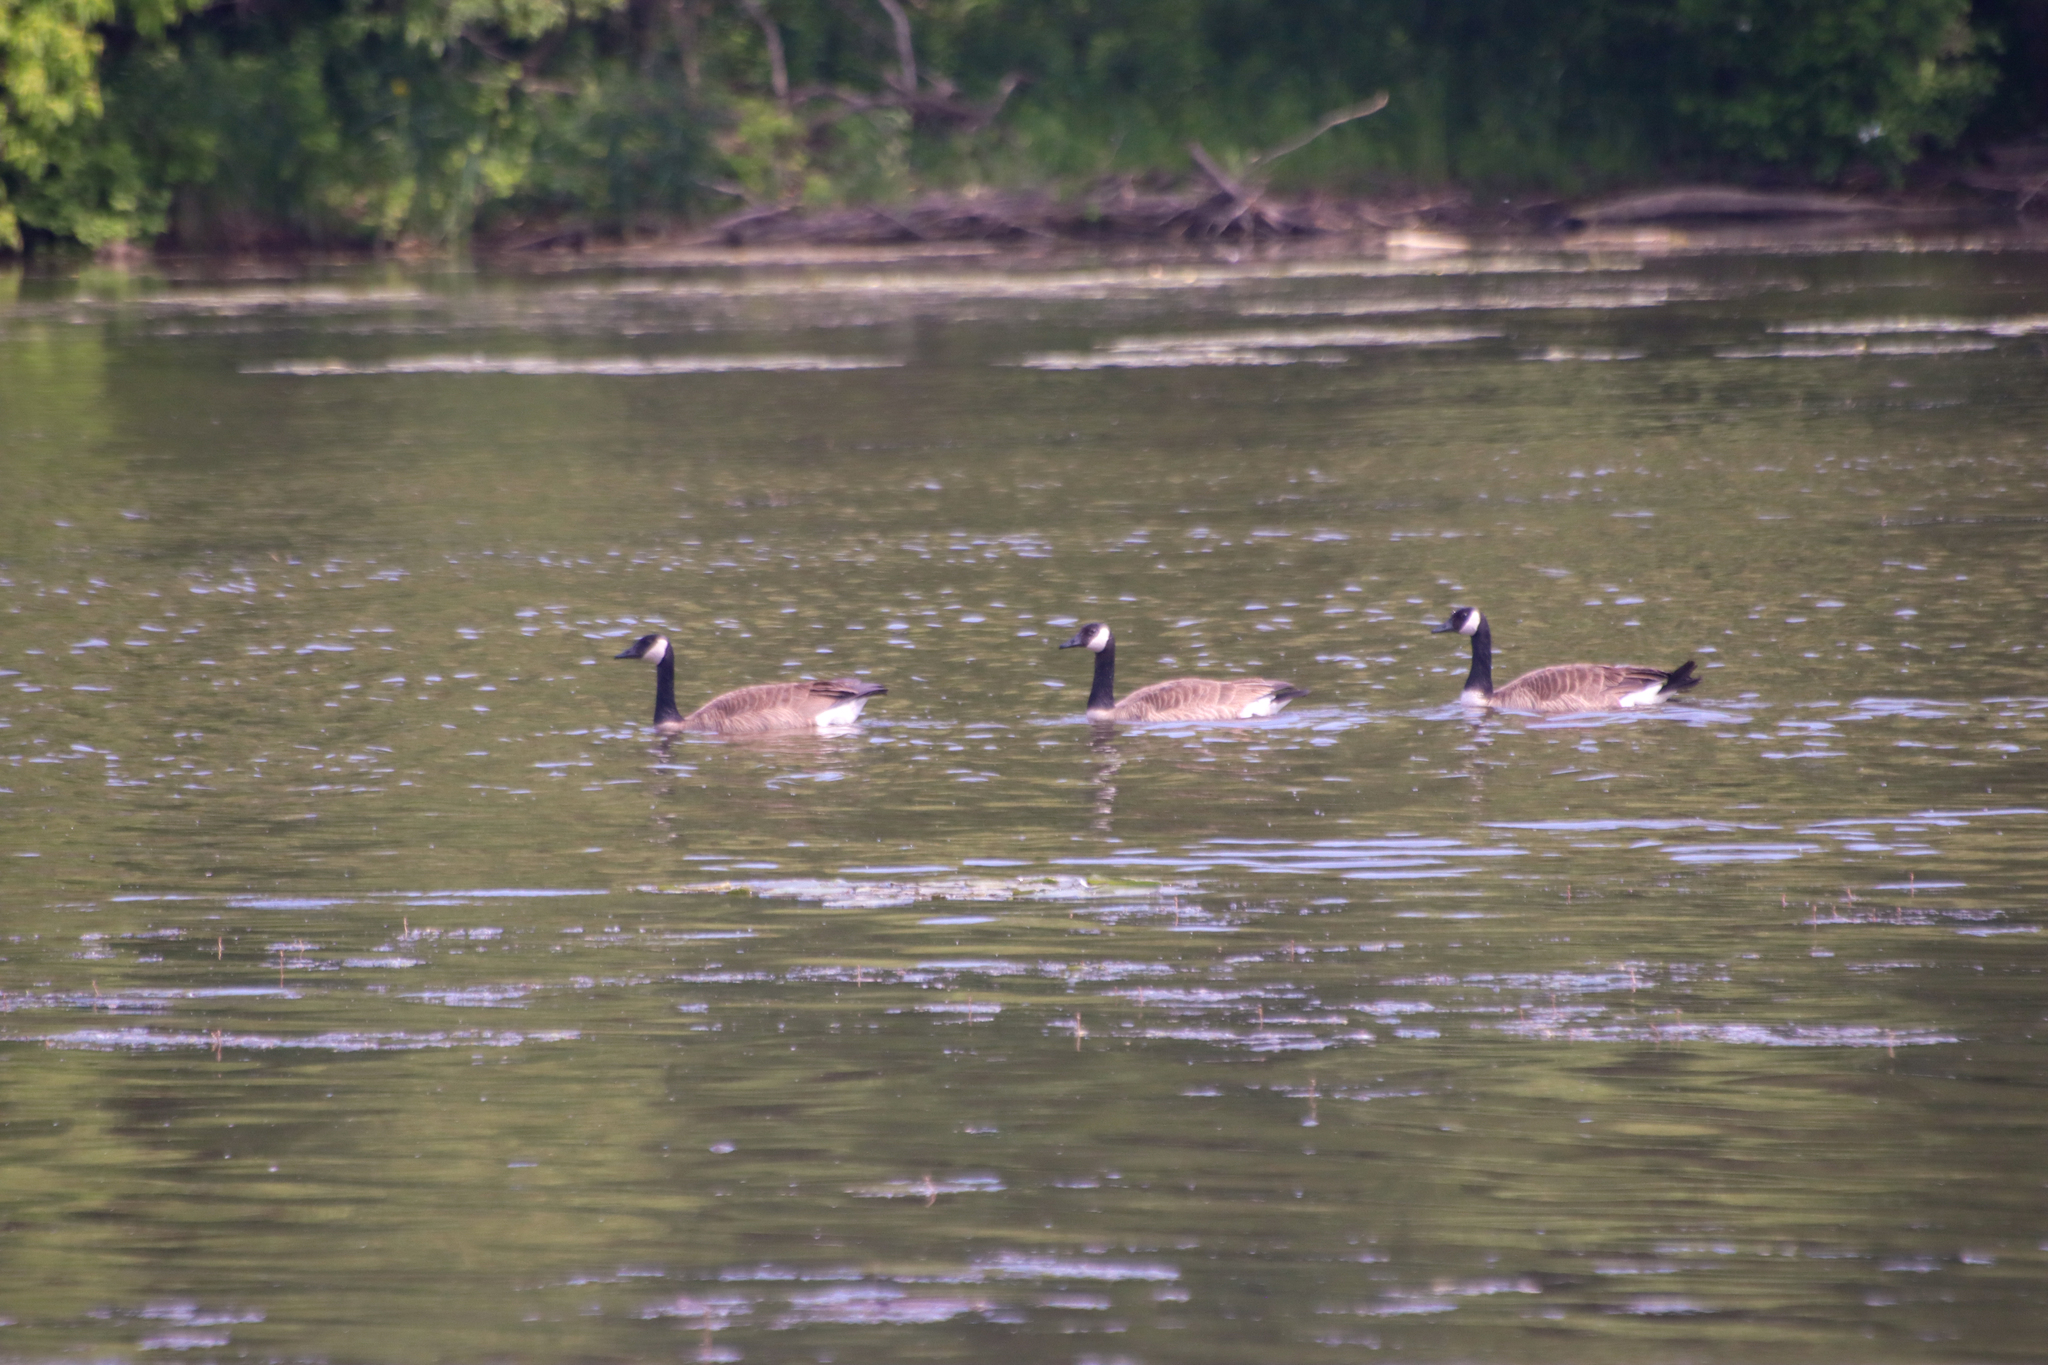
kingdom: Animalia
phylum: Chordata
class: Aves
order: Anseriformes
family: Anatidae
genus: Branta
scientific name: Branta canadensis
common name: Canada goose
